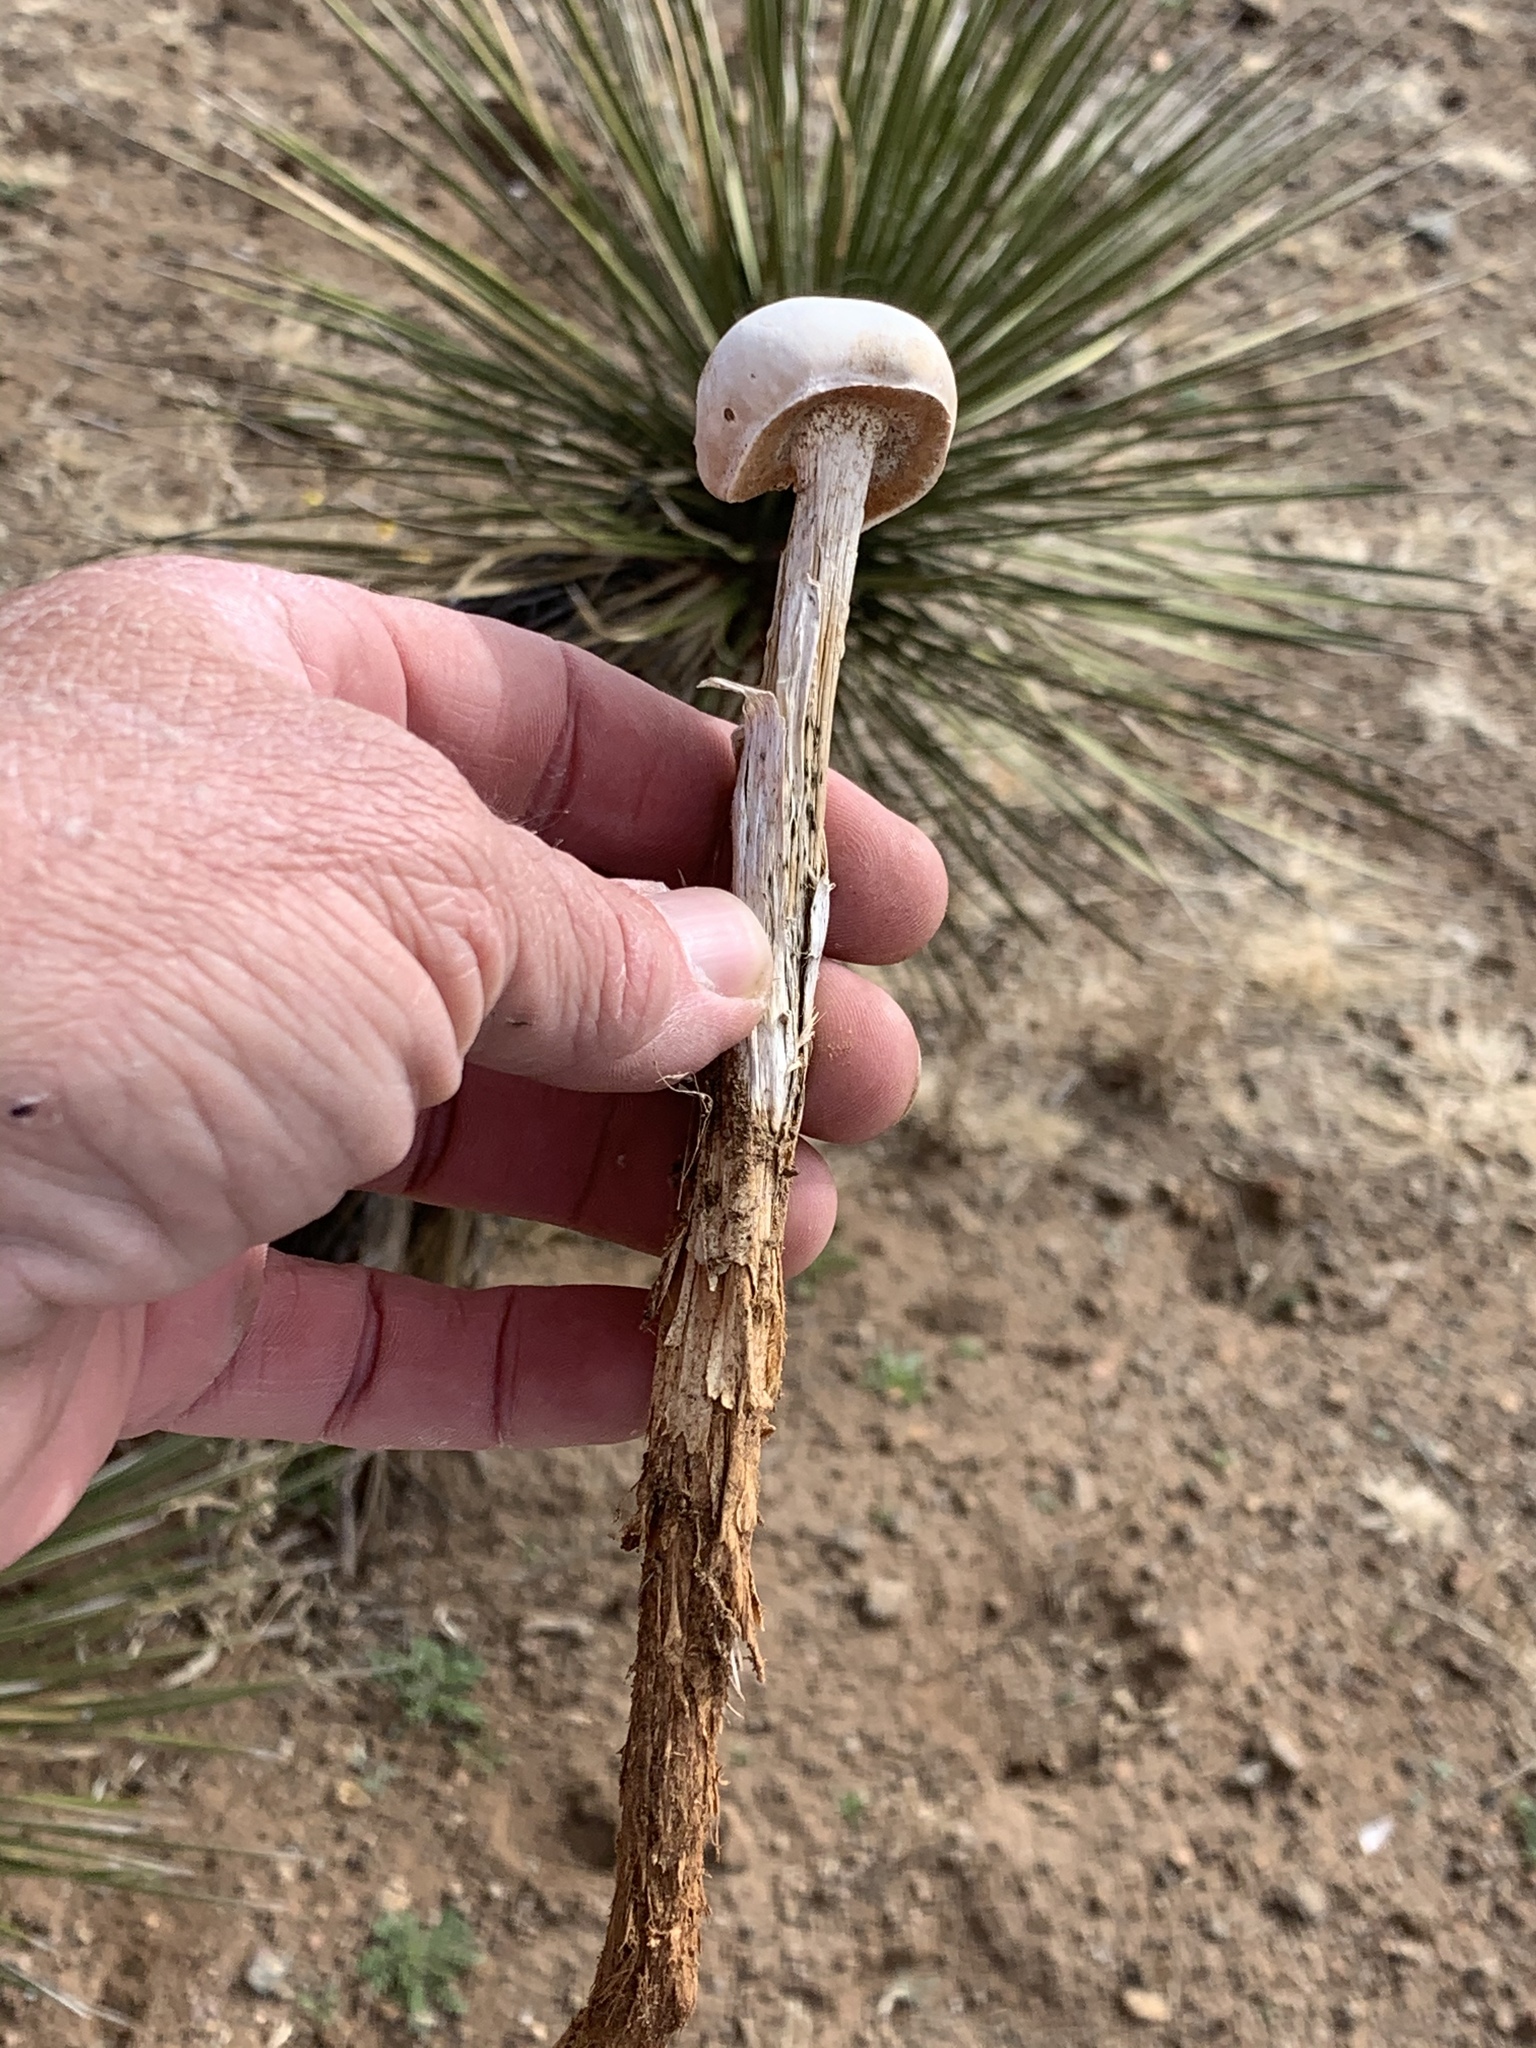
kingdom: Fungi
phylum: Basidiomycota
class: Agaricomycetes
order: Agaricales
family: Agaricaceae
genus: Battarreoides
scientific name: Battarreoides diguetii
